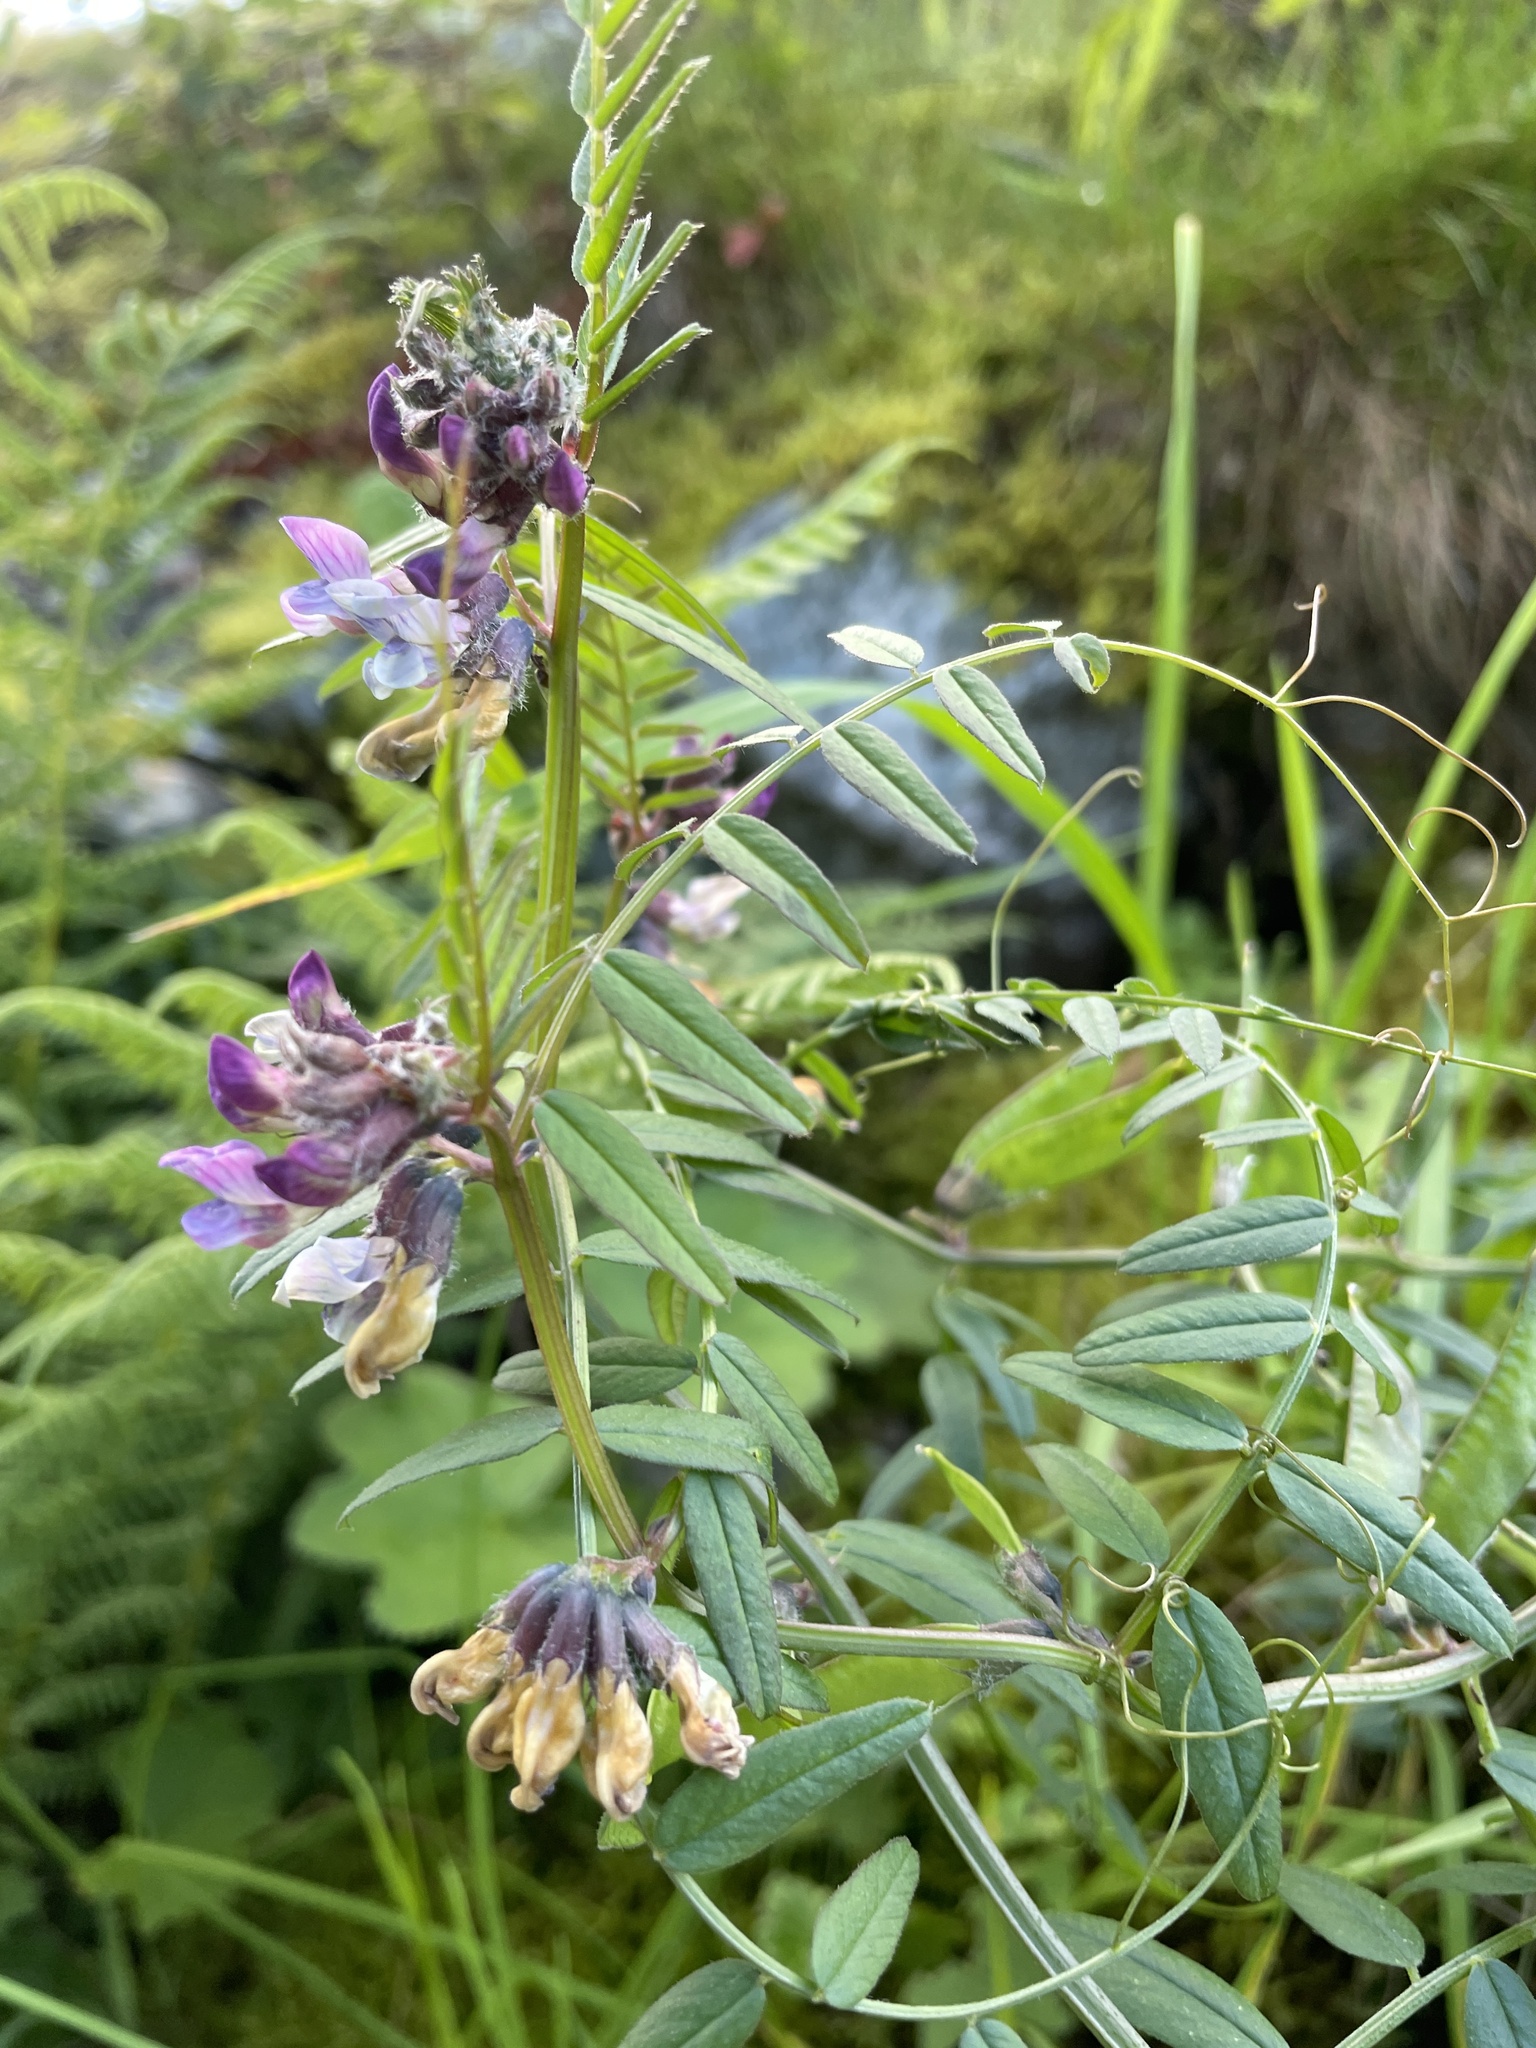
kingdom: Plantae
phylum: Tracheophyta
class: Magnoliopsida
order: Fabales
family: Fabaceae
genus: Vicia
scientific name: Vicia sepium
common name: Bush vetch
